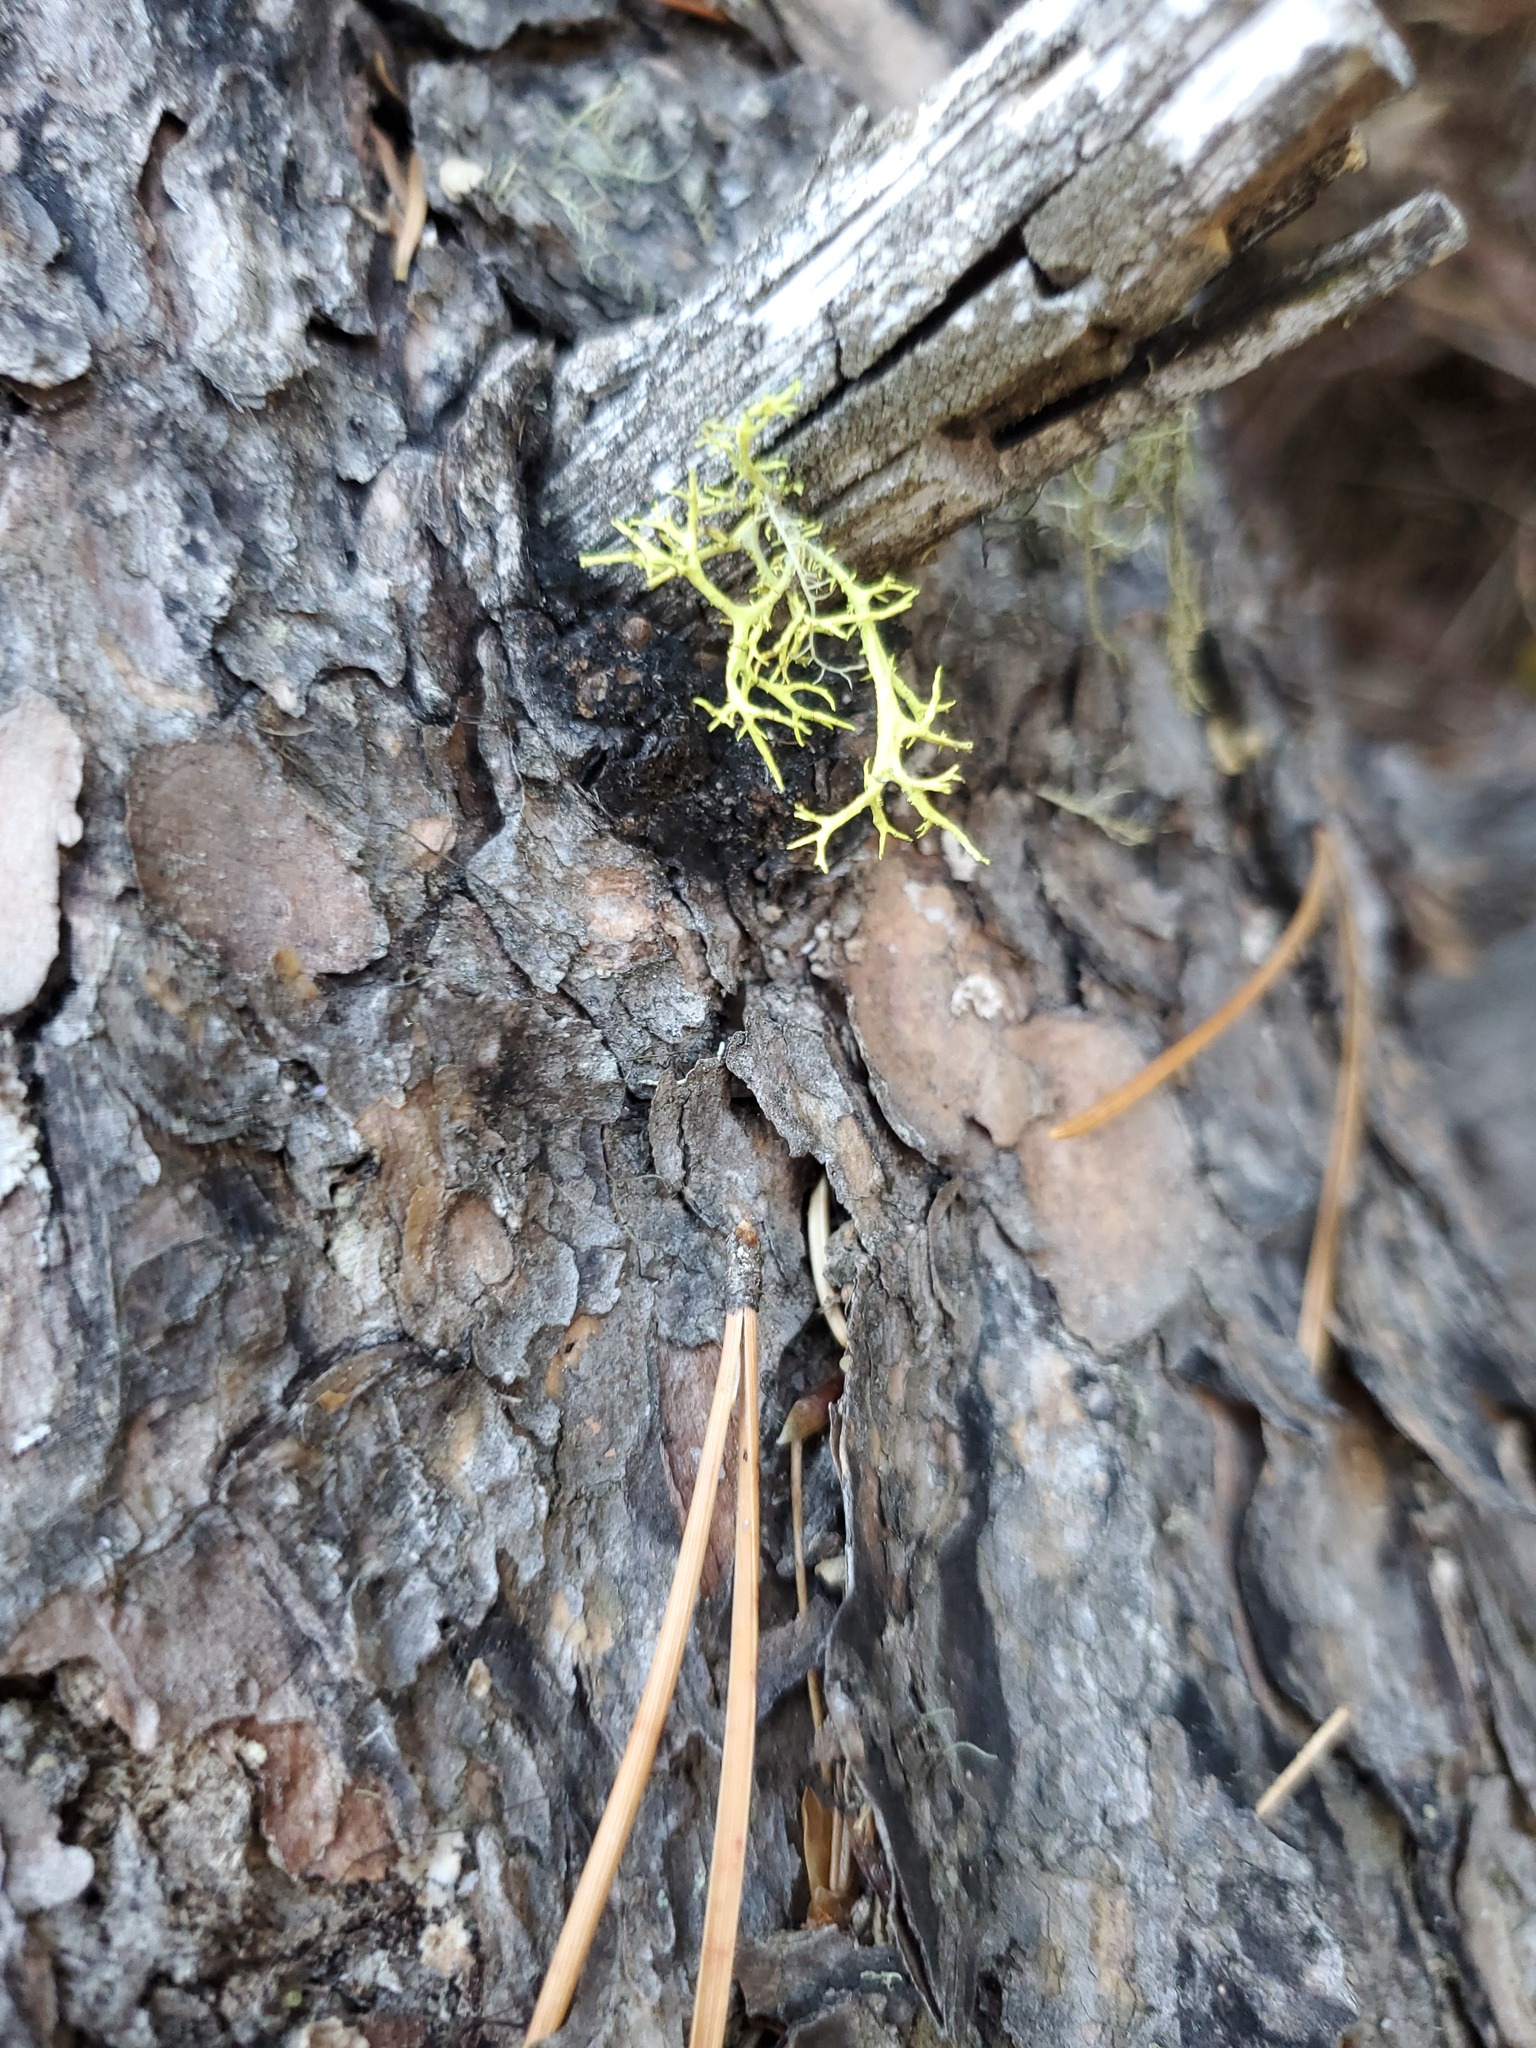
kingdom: Fungi
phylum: Ascomycota
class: Lecanoromycetes
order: Lecanorales
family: Parmeliaceae
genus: Letharia
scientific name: Letharia lupina
